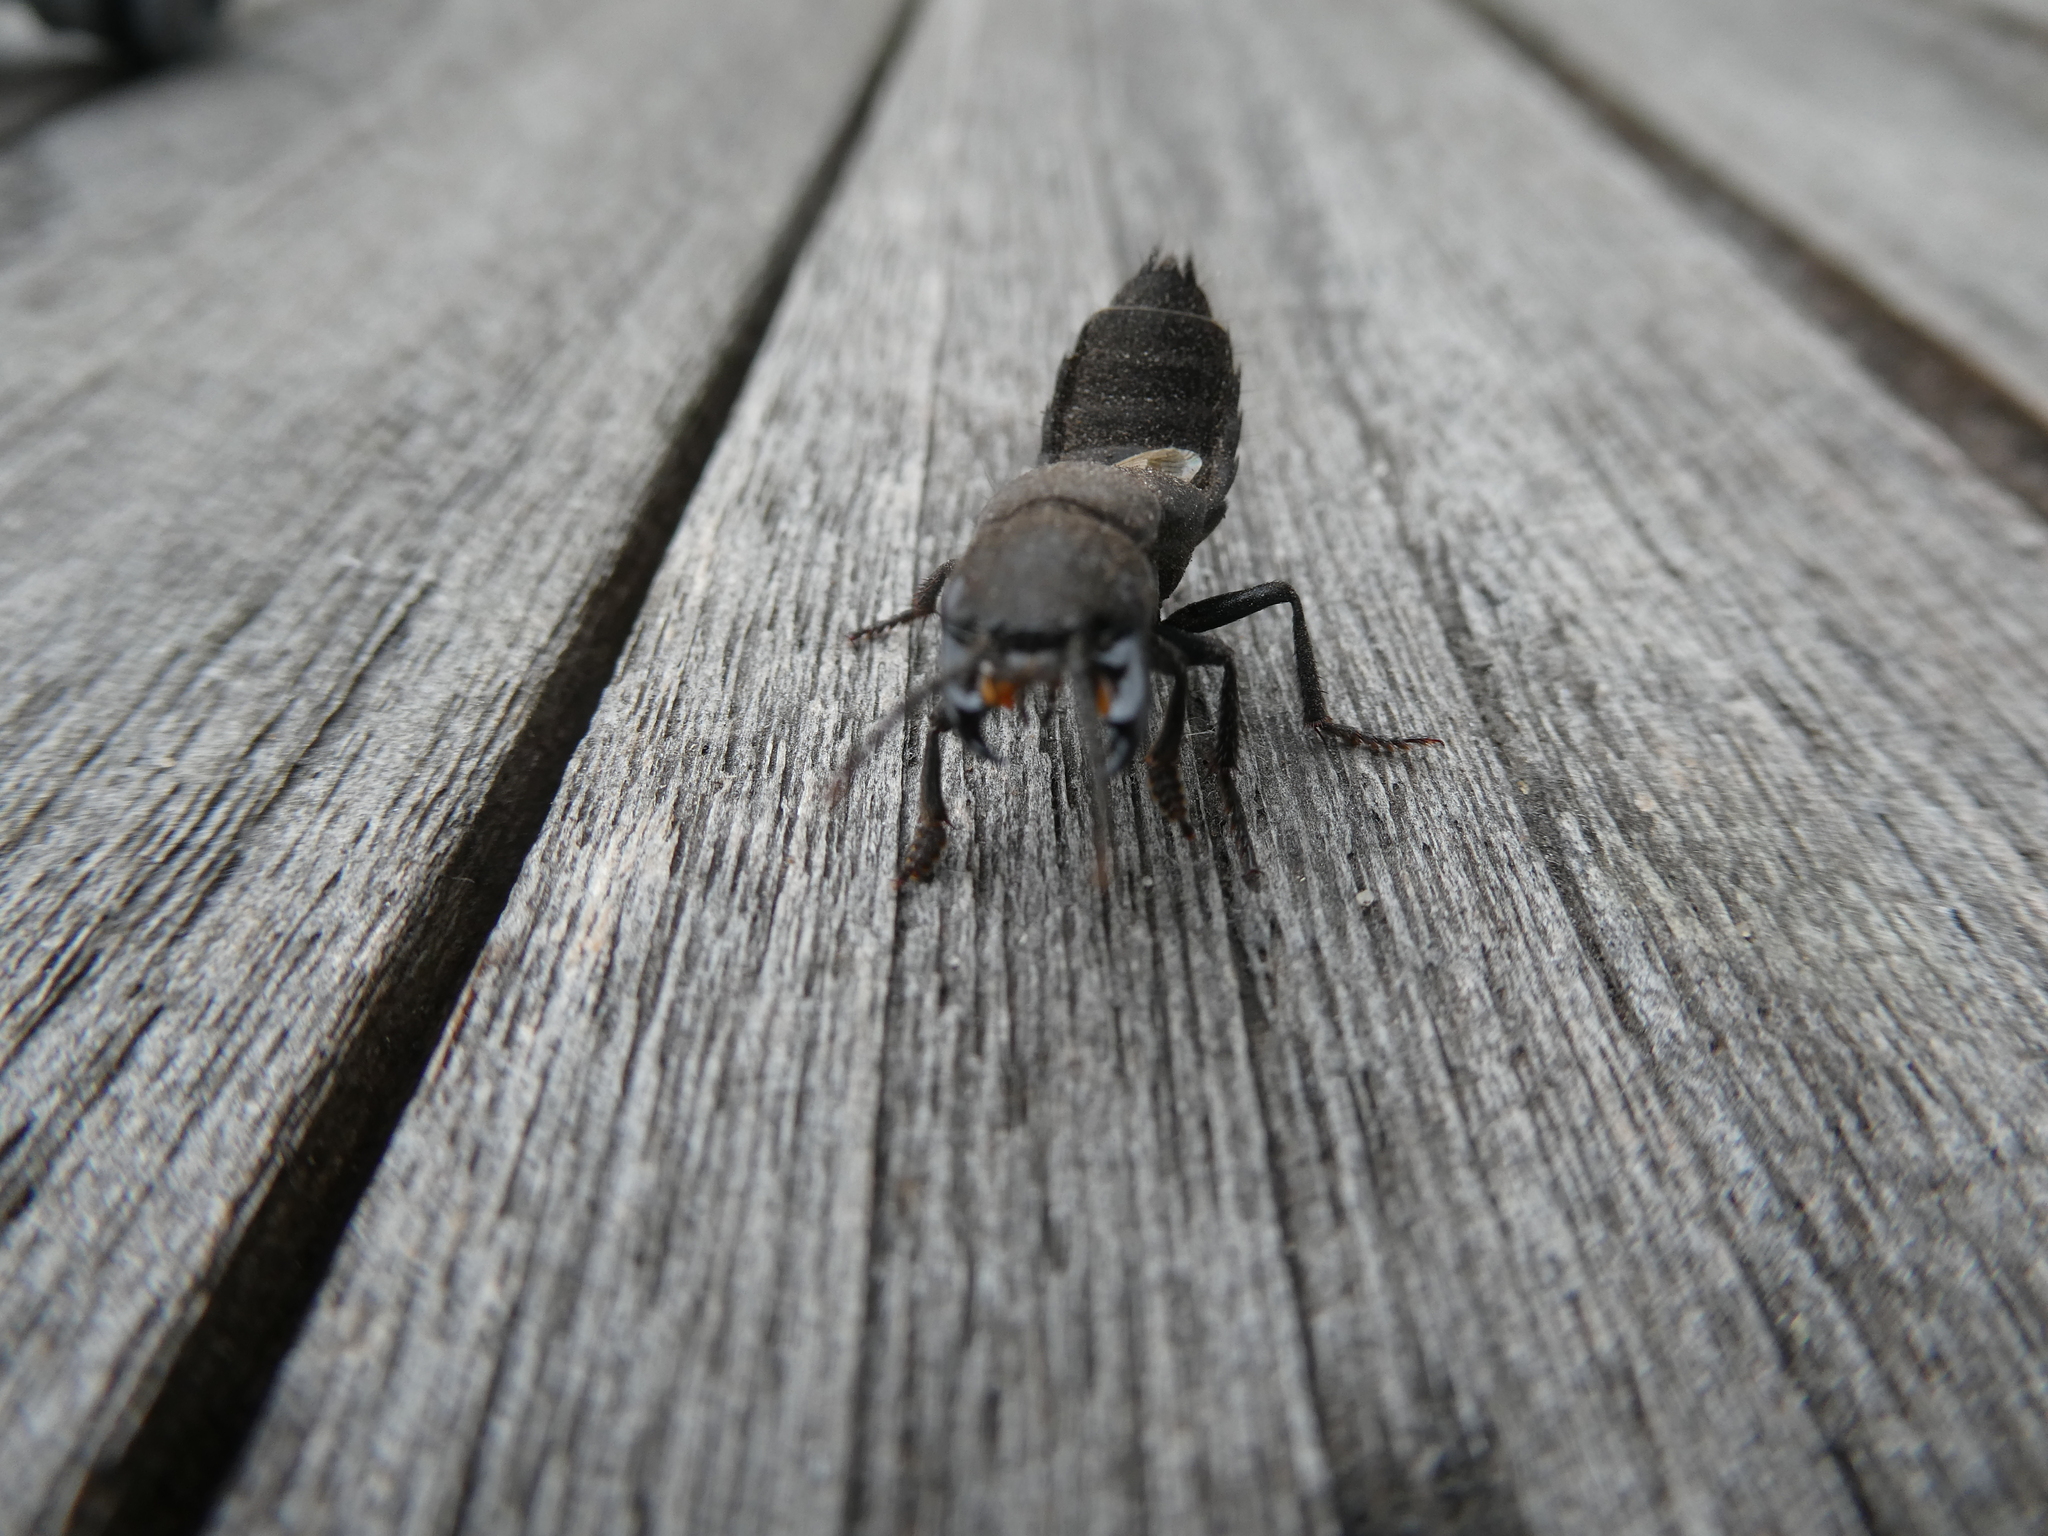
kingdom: Animalia
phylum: Arthropoda
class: Insecta
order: Coleoptera
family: Staphylinidae
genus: Ocypus
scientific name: Ocypus olens
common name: Devil's coach-horse
